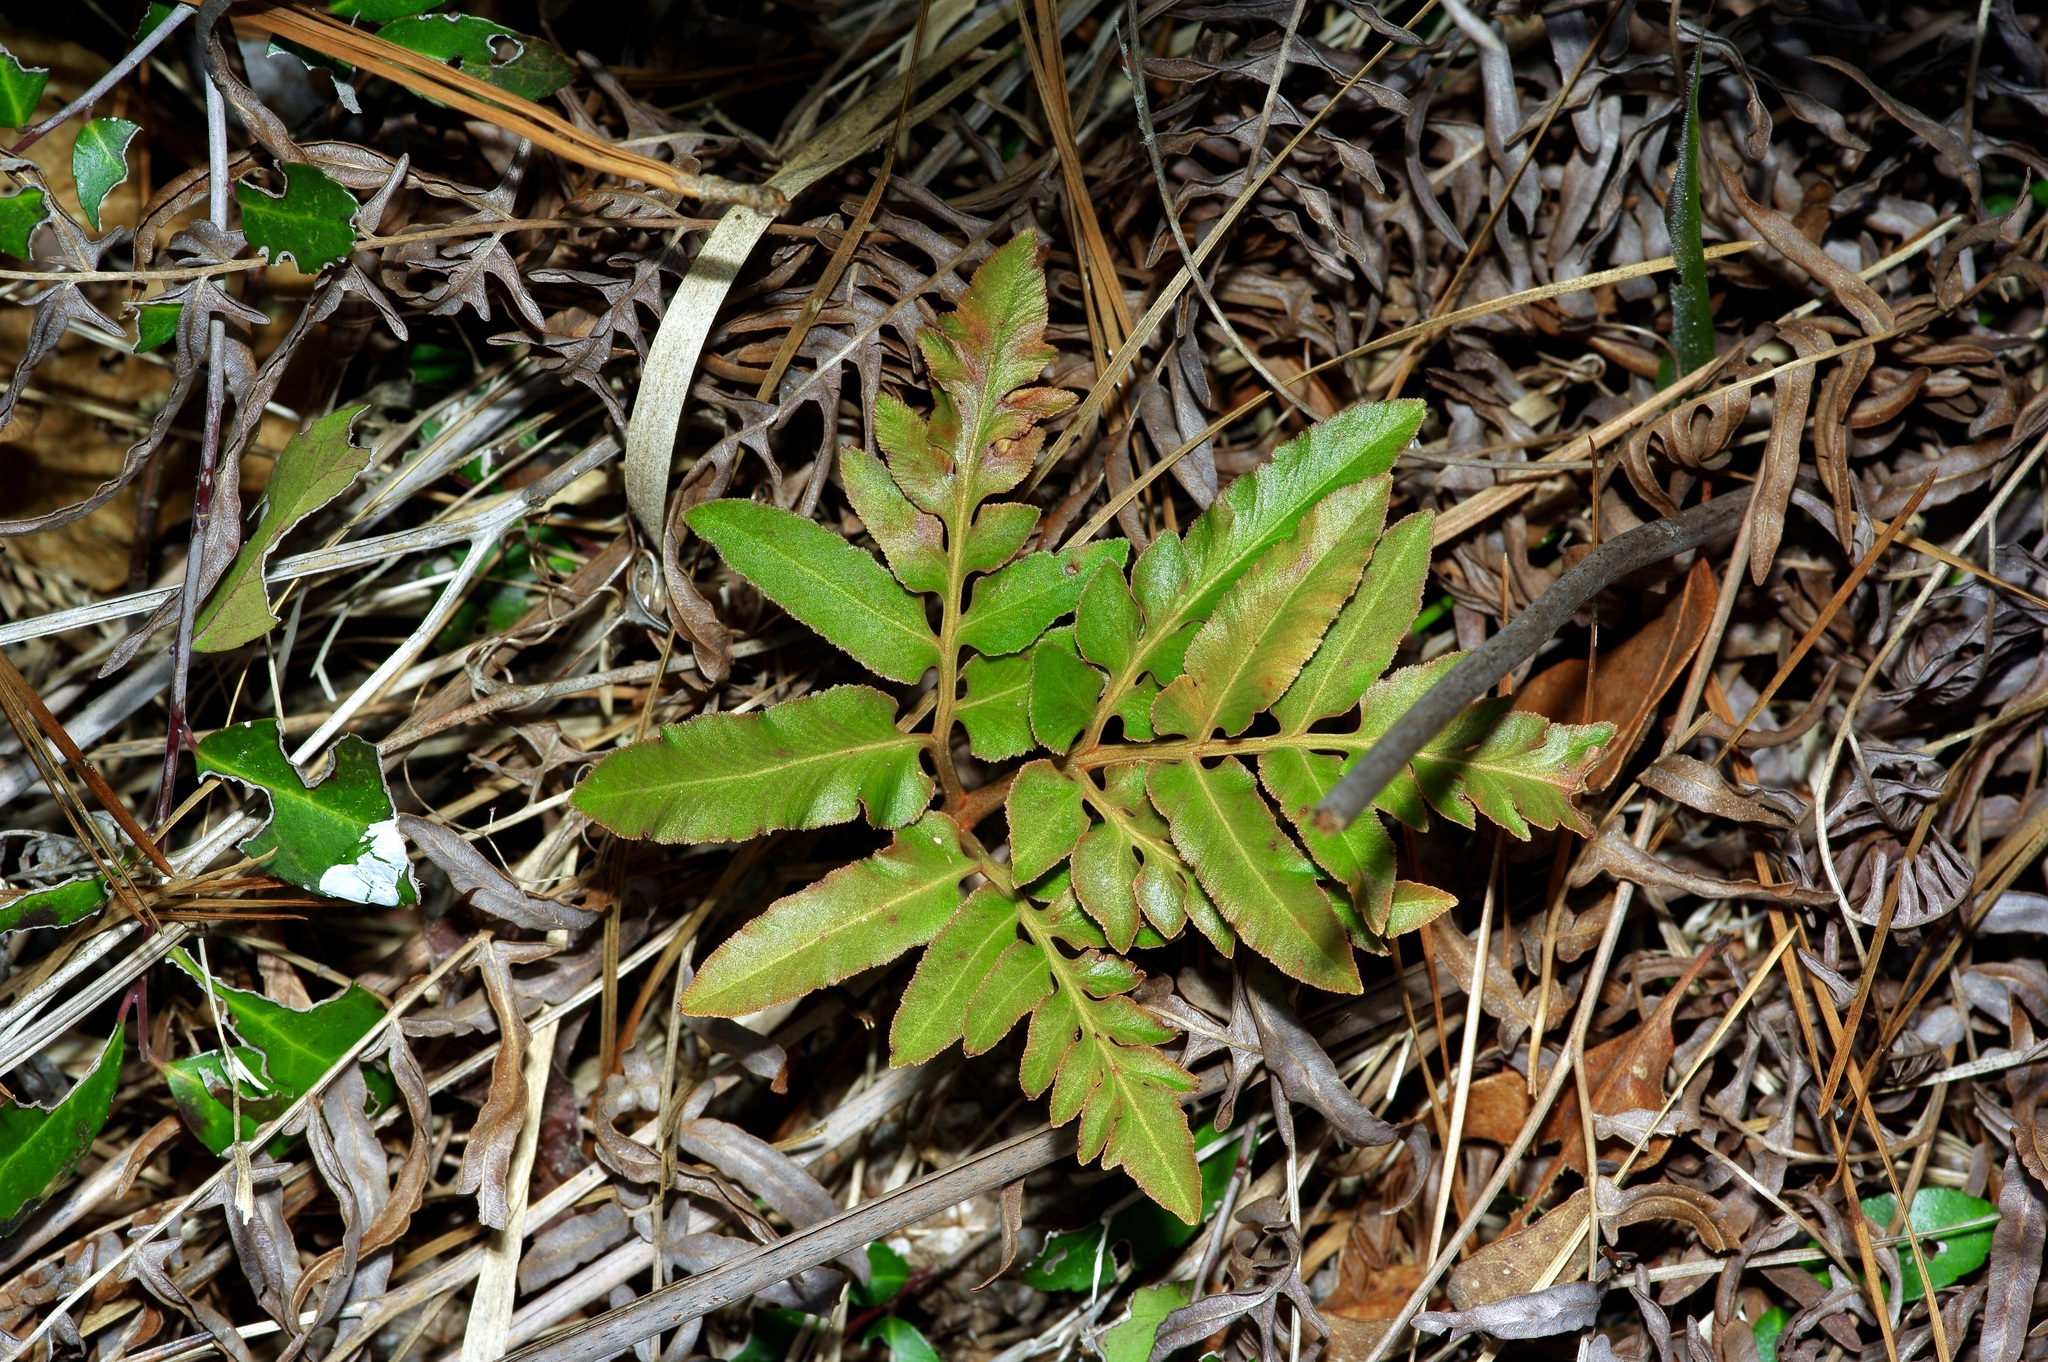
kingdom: Plantae
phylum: Tracheophyta
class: Polypodiopsida
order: Ophioglossales
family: Ophioglossaceae
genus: Sceptridium
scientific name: Sceptridium biternatum
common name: Sparse-lobed grapefern
